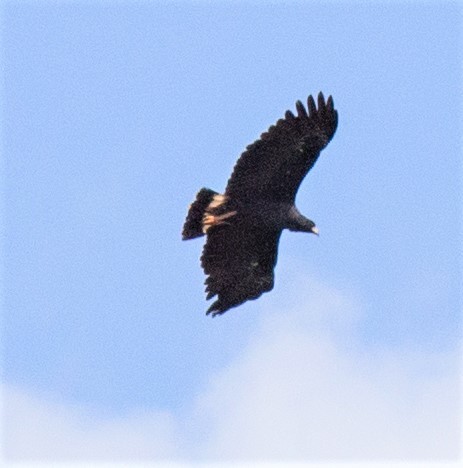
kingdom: Animalia
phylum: Chordata
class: Aves
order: Accipitriformes
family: Accipitridae
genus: Buteogallus
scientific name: Buteogallus urubitinga
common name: Great black hawk
